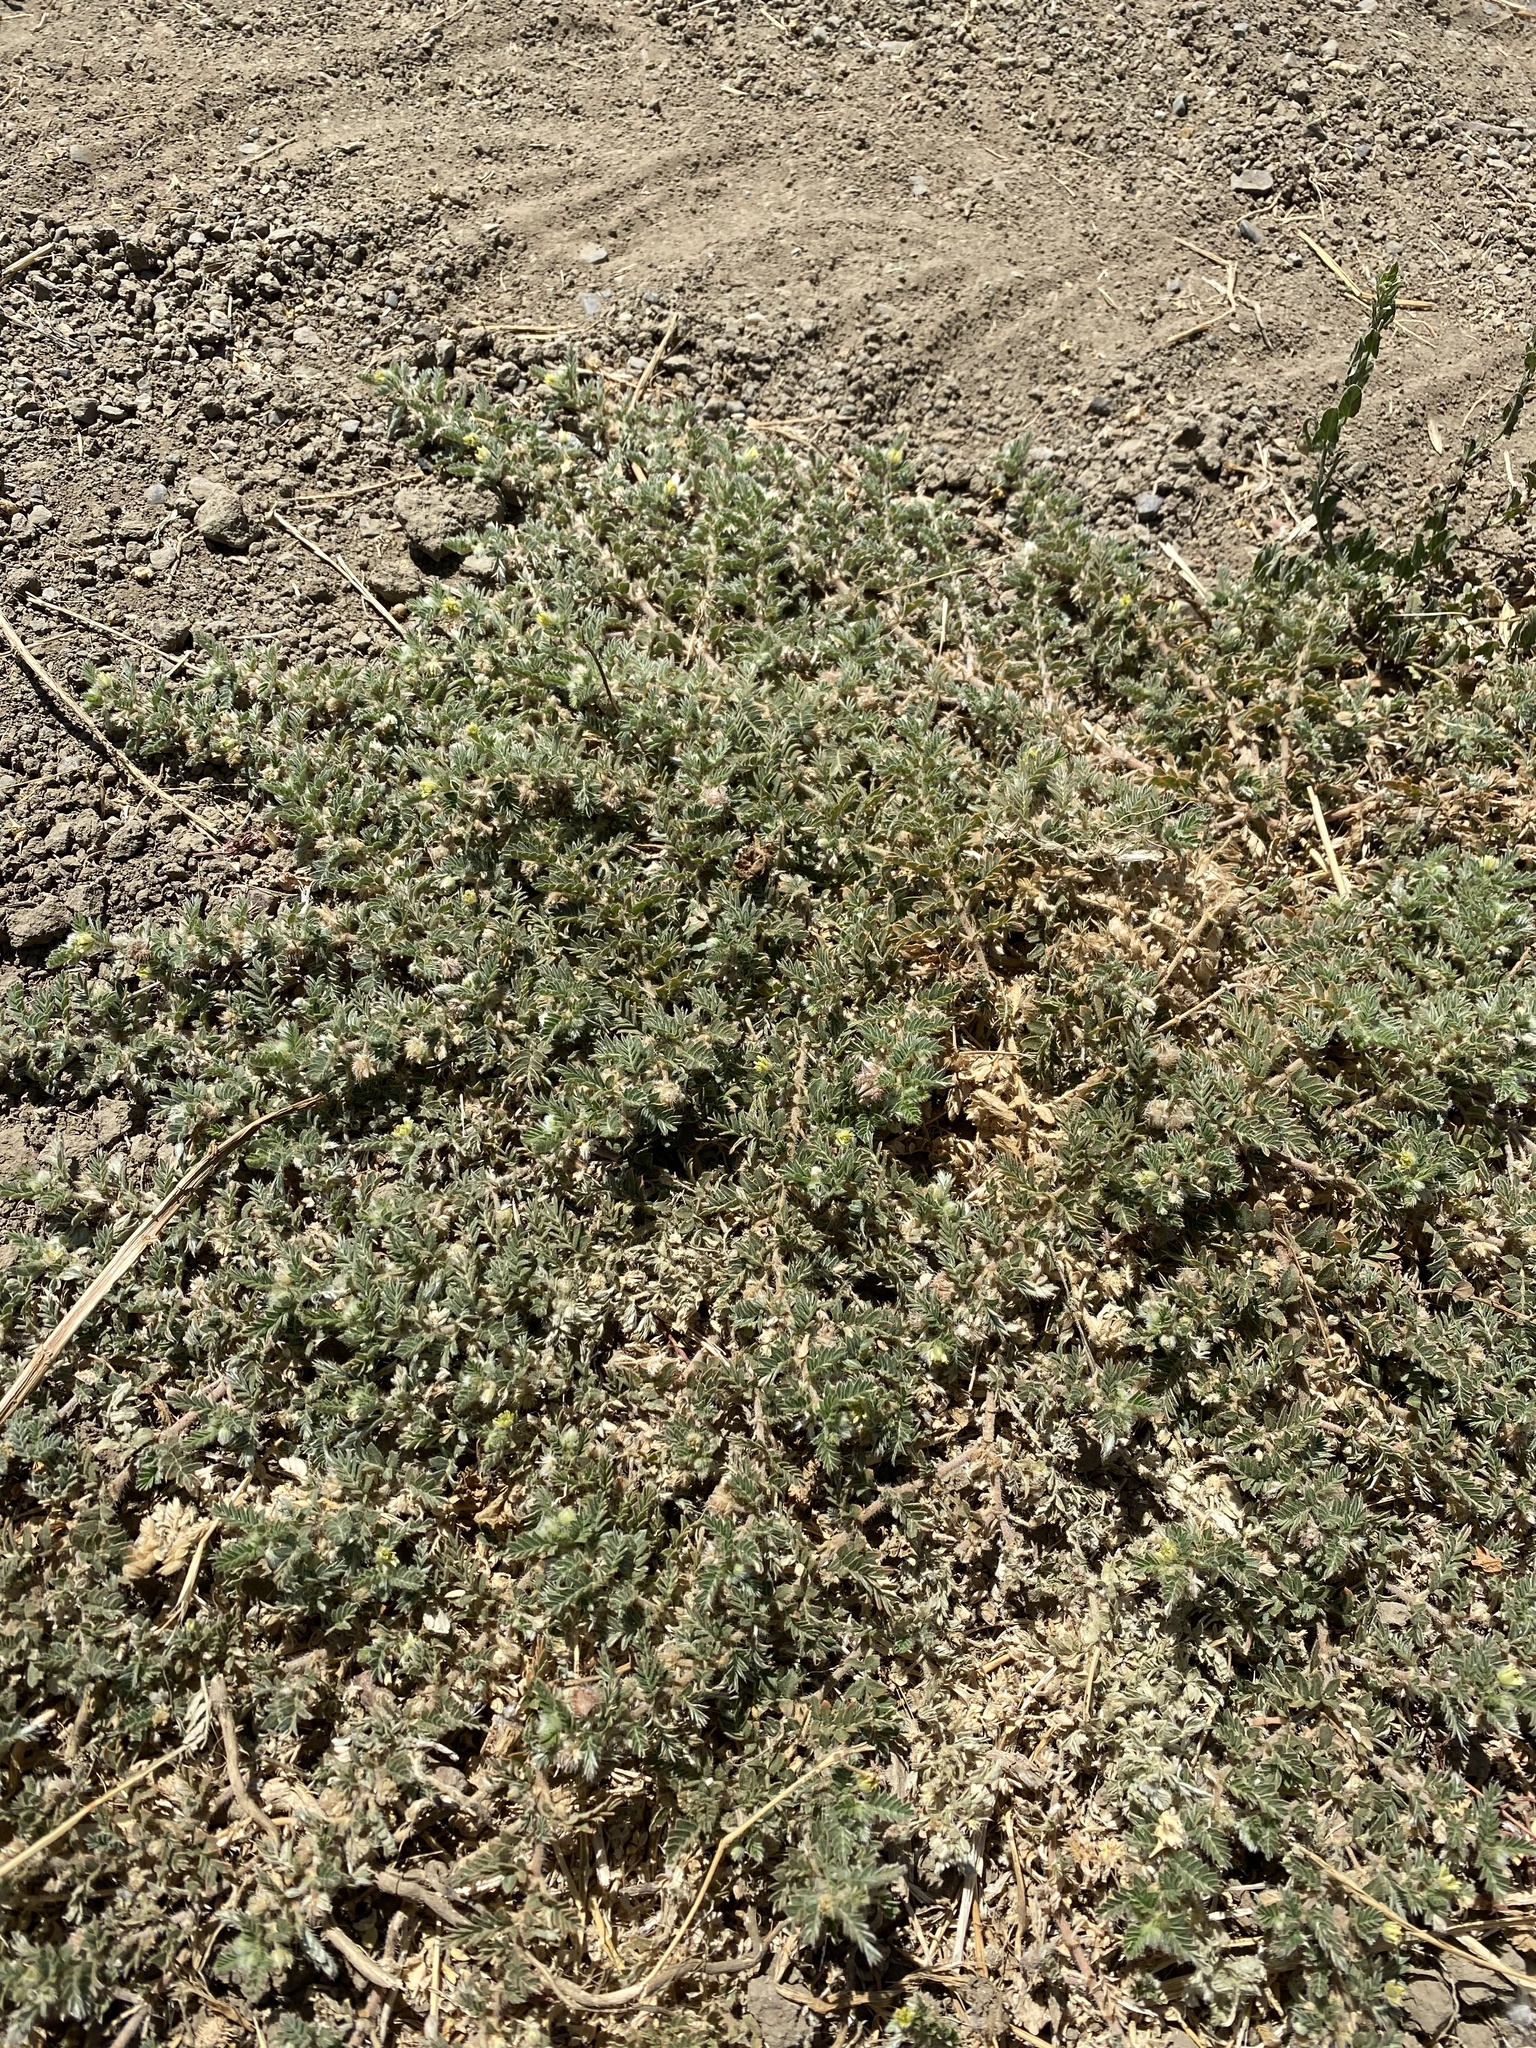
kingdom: Plantae
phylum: Tracheophyta
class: Magnoliopsida
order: Zygophyllales
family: Zygophyllaceae
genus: Tribulus
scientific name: Tribulus terrestris
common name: Puncturevine
